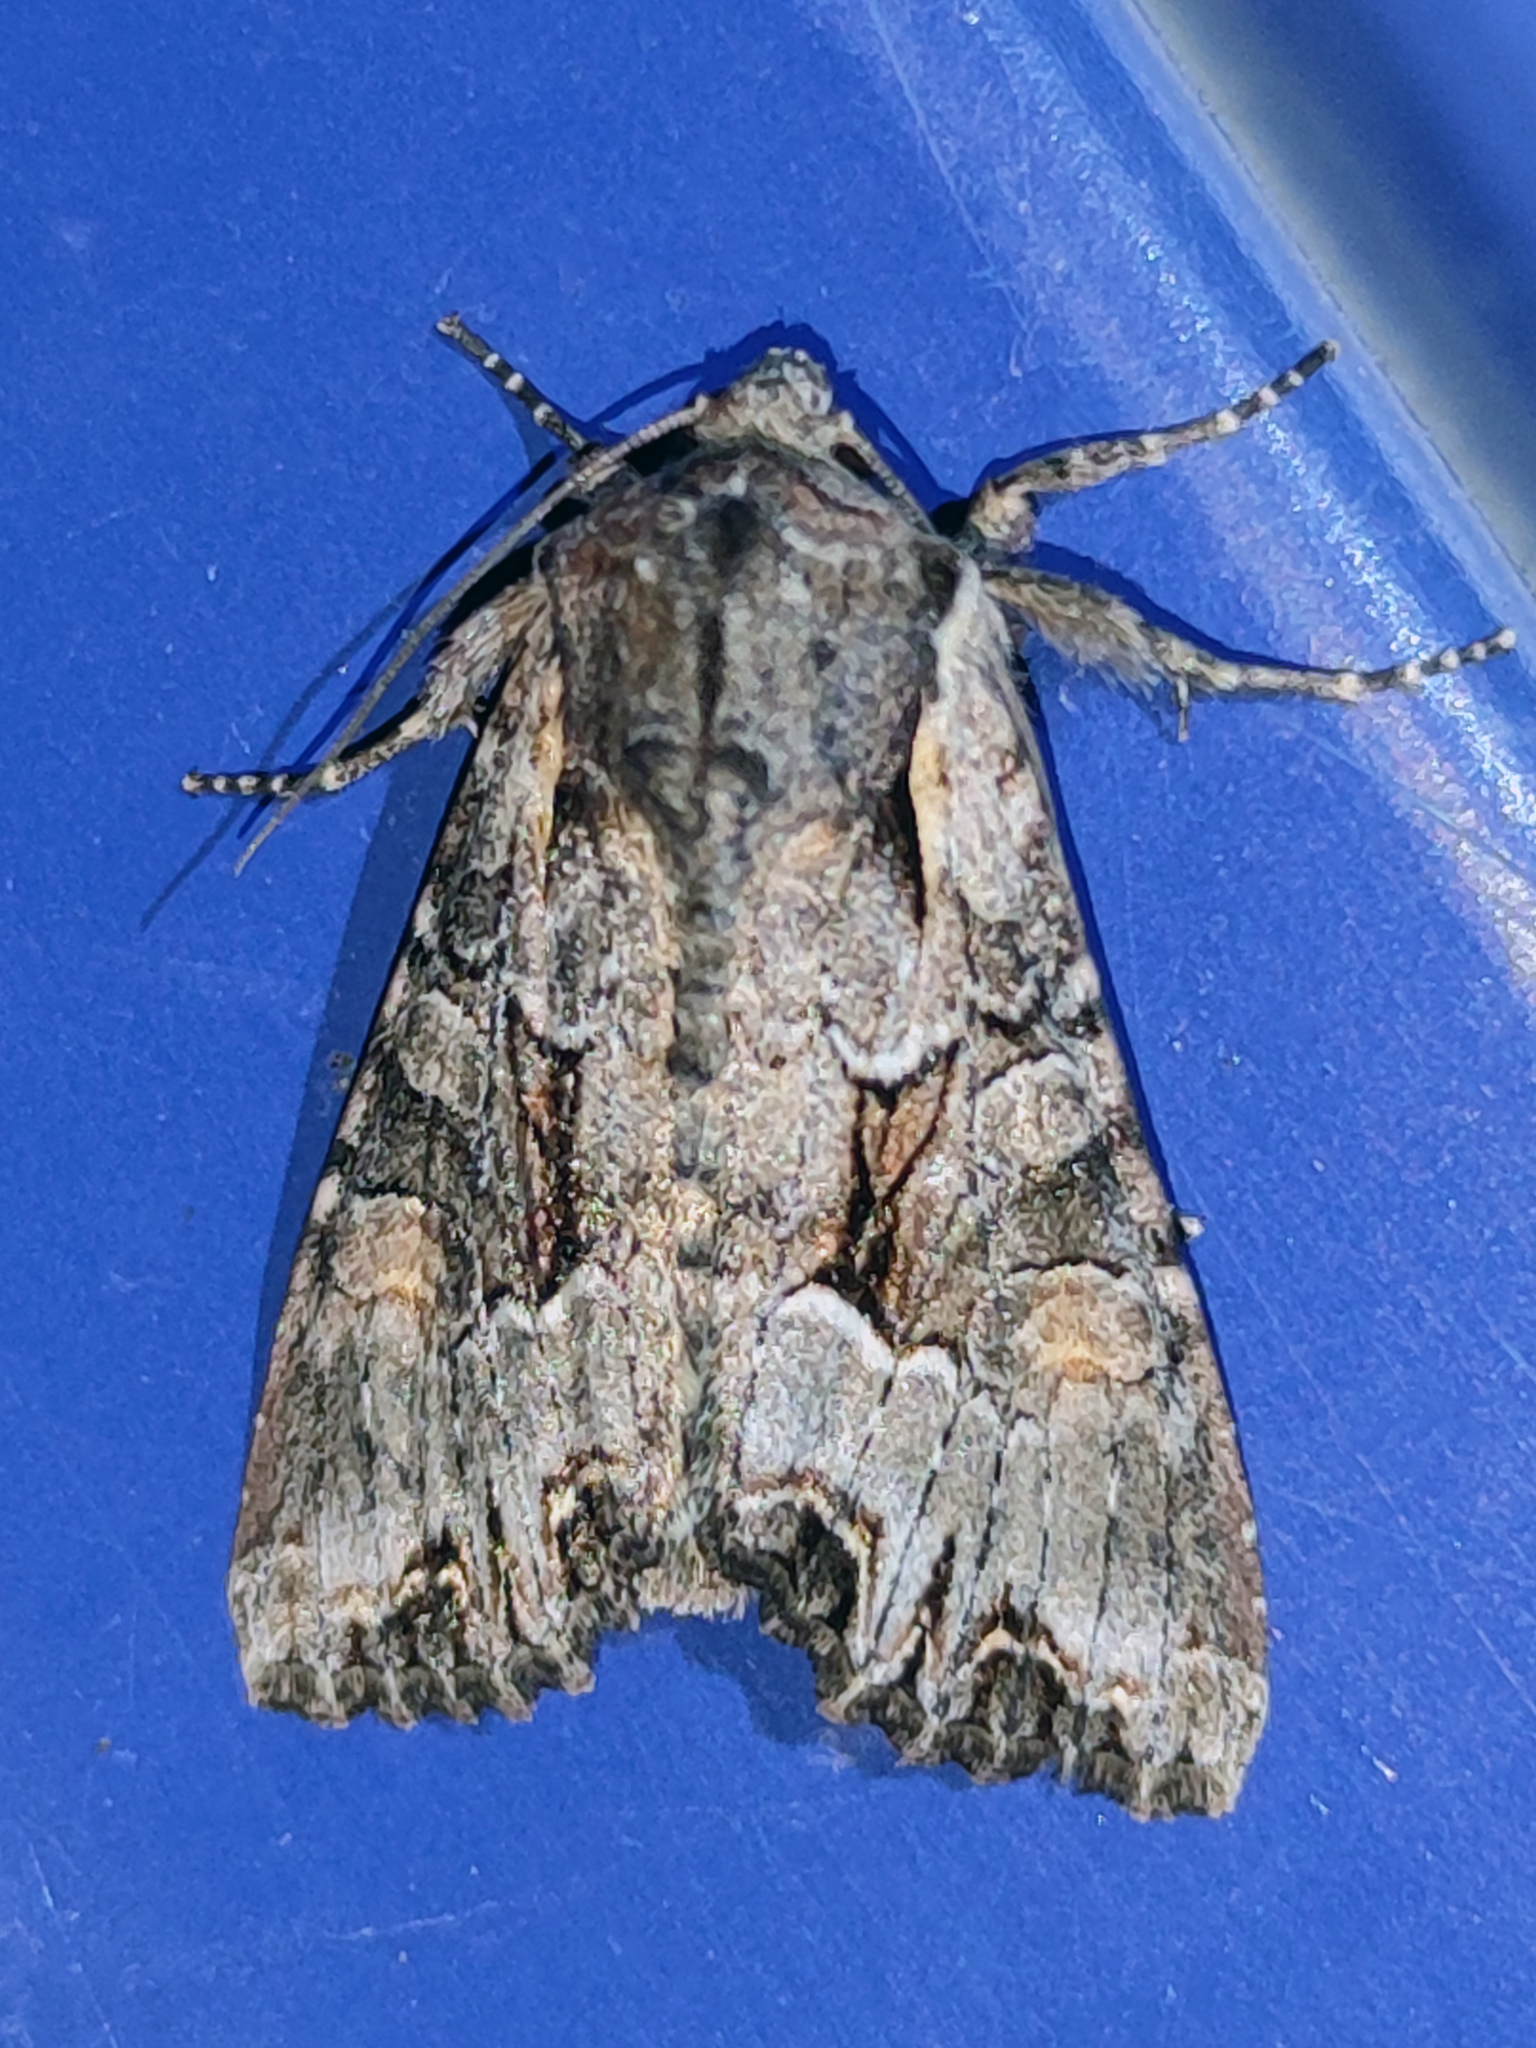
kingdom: Animalia
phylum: Arthropoda
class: Insecta
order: Lepidoptera
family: Noctuidae
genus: Lacanobia
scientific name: Lacanobia w-latinum
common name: Light brocade
